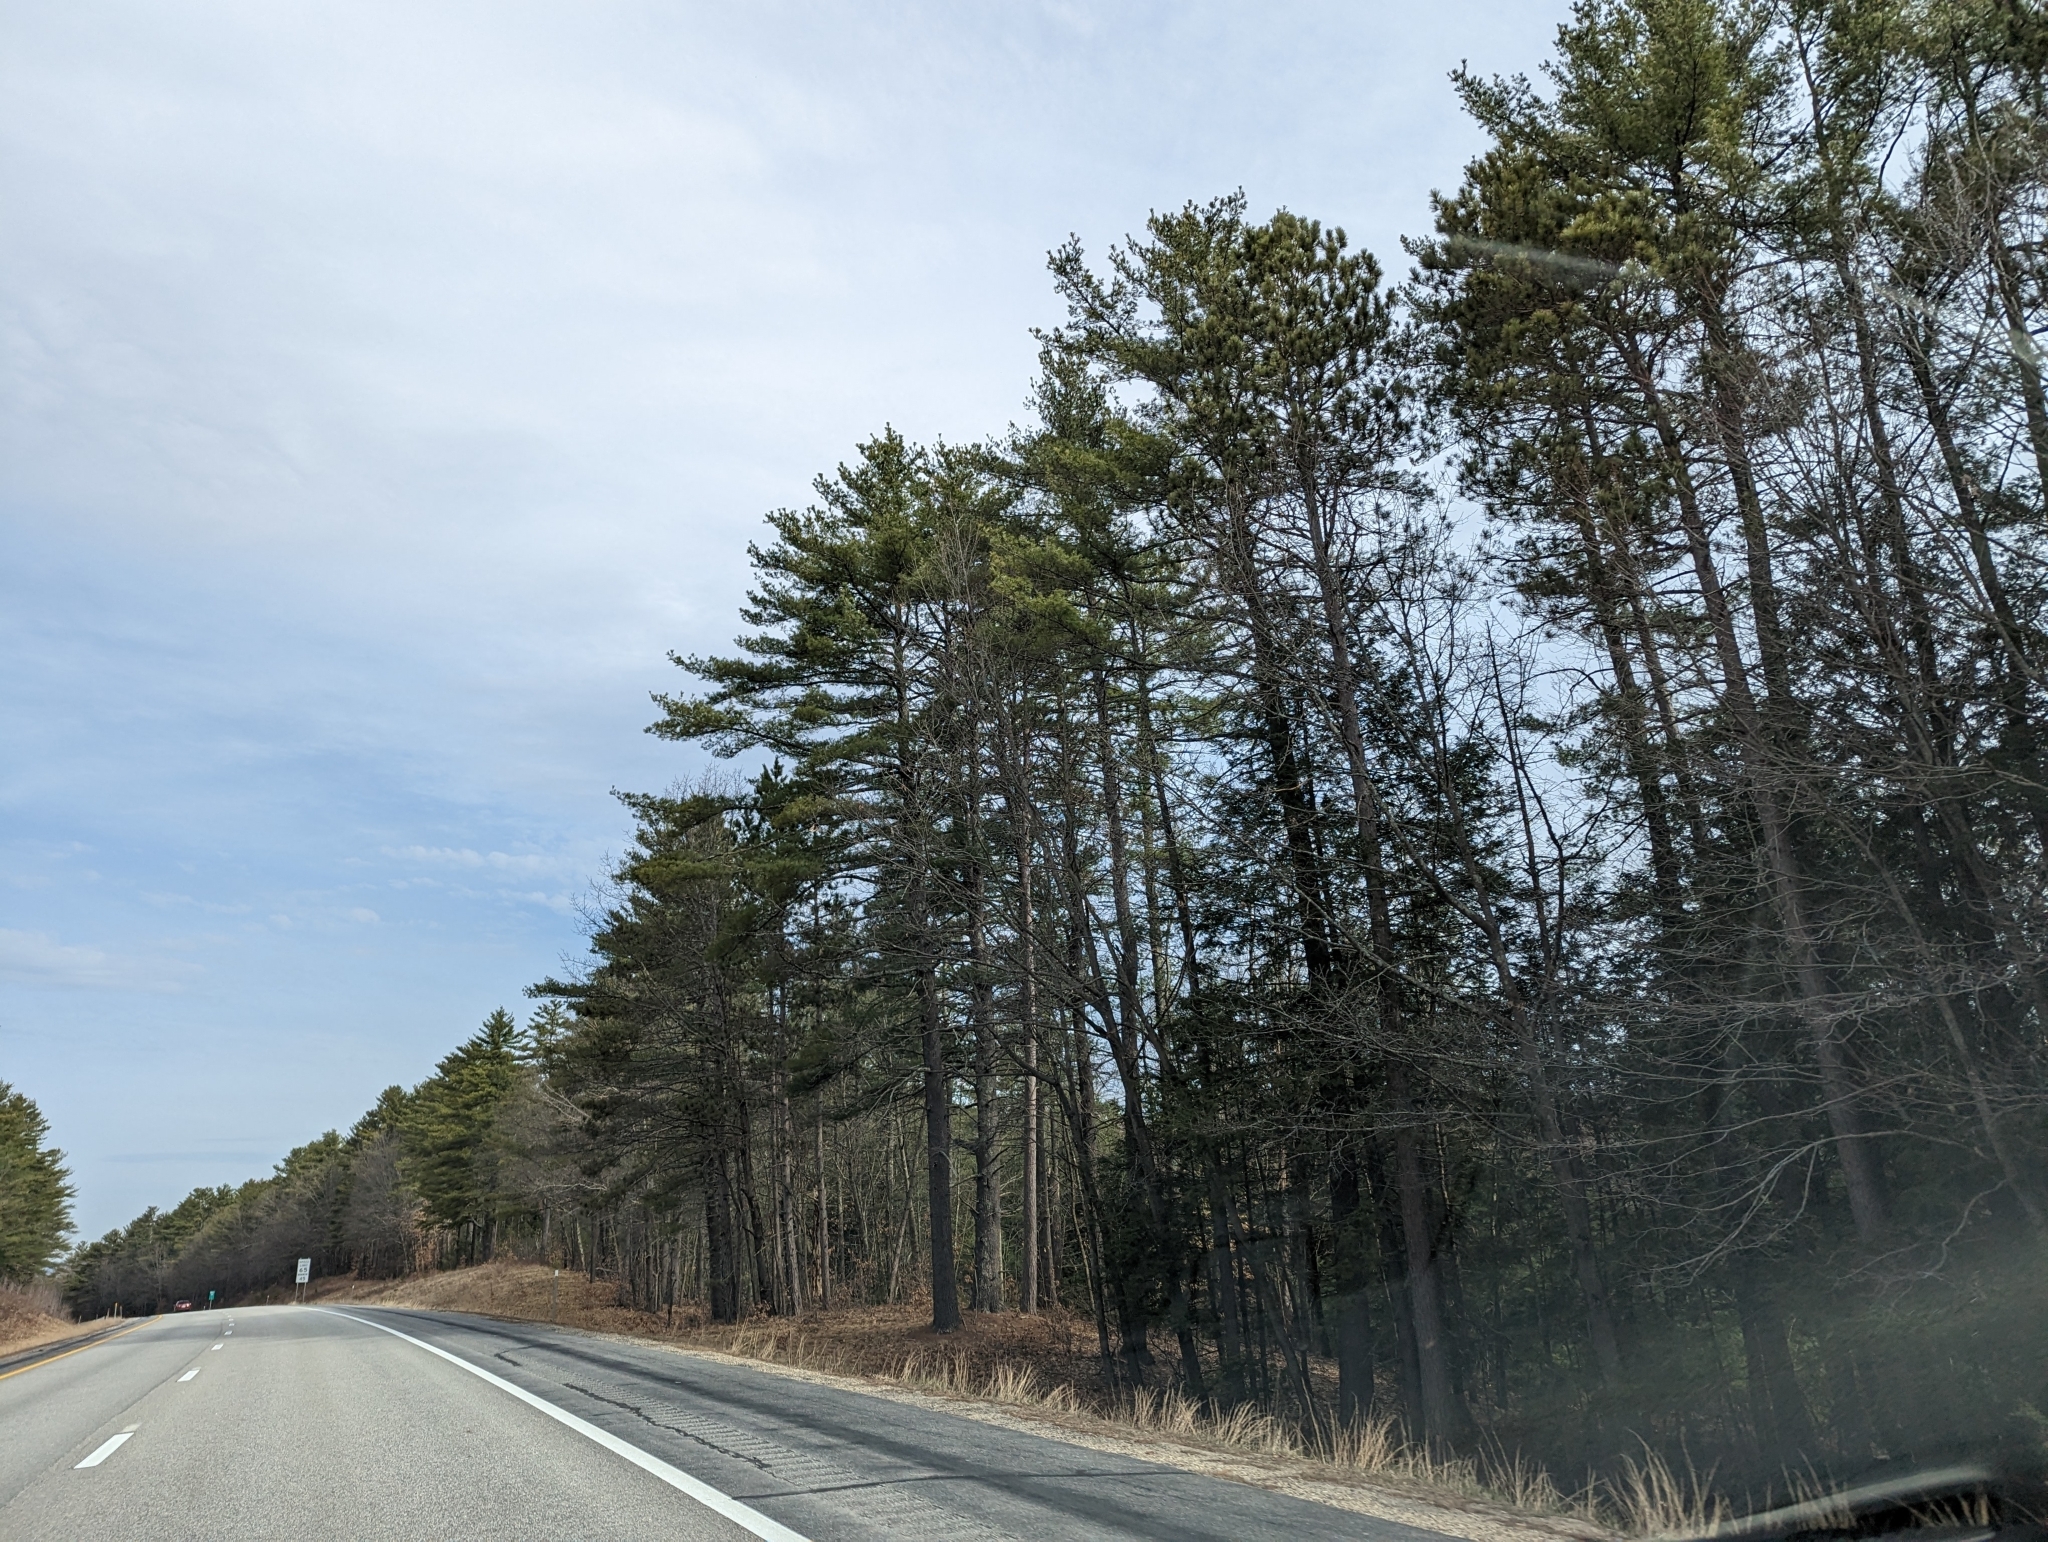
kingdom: Plantae
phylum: Tracheophyta
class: Pinopsida
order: Pinales
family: Pinaceae
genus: Pinus
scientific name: Pinus strobus
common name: Weymouth pine
